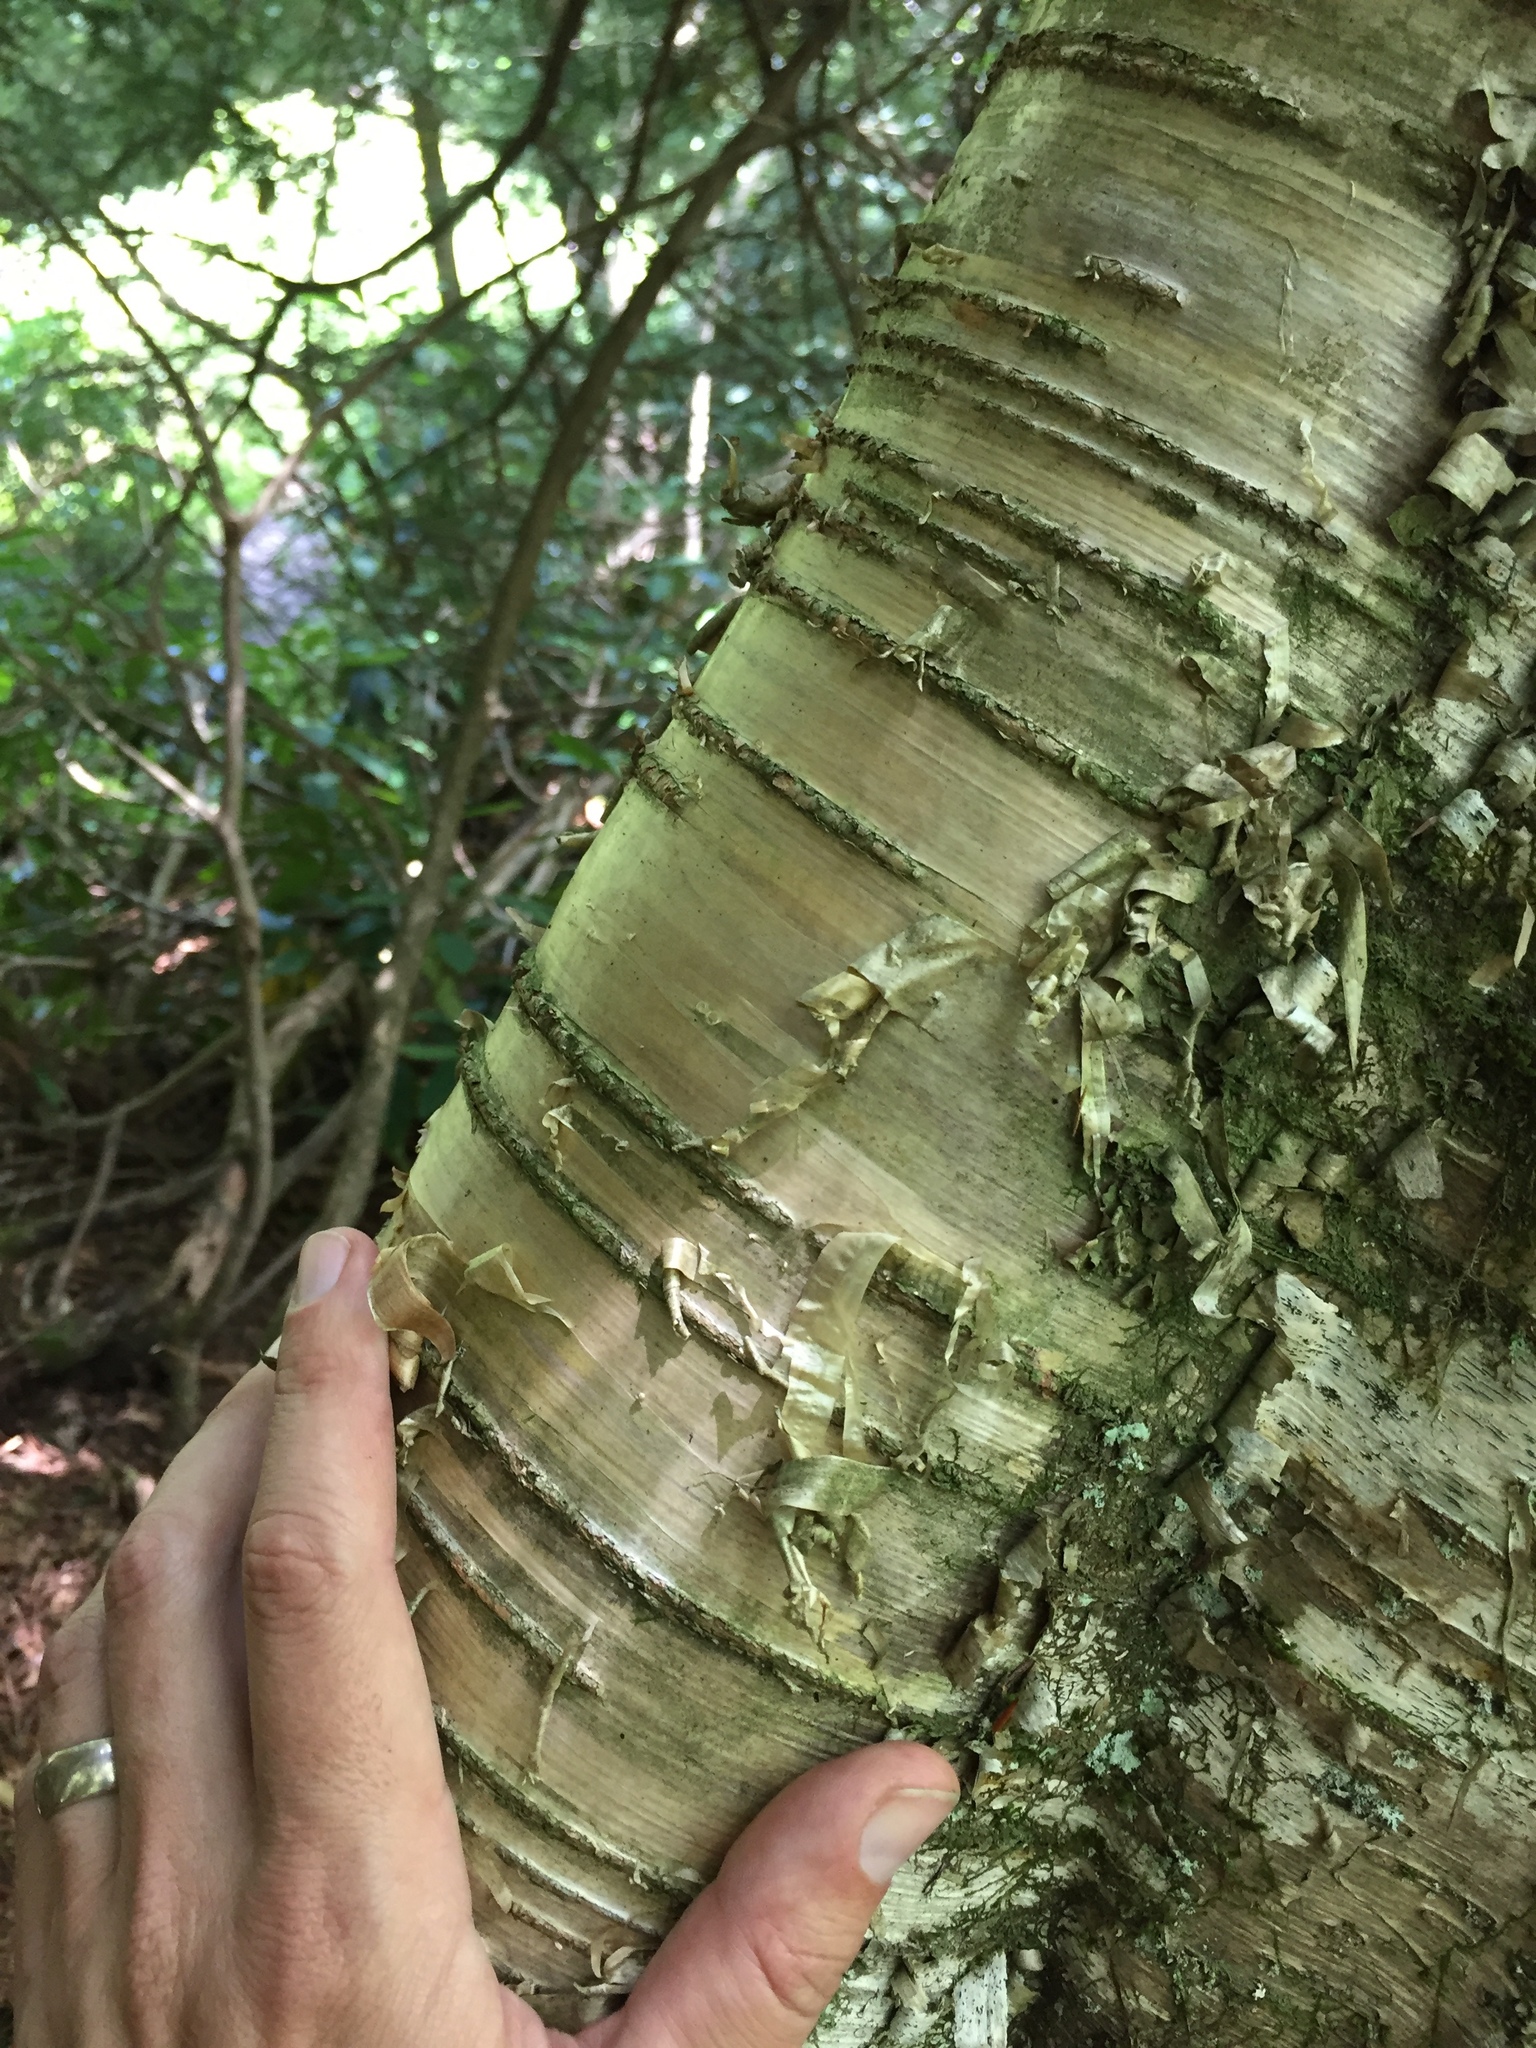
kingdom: Plantae
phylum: Tracheophyta
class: Magnoliopsida
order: Fagales
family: Betulaceae
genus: Betula
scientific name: Betula alleghaniensis
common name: Yellow birch
